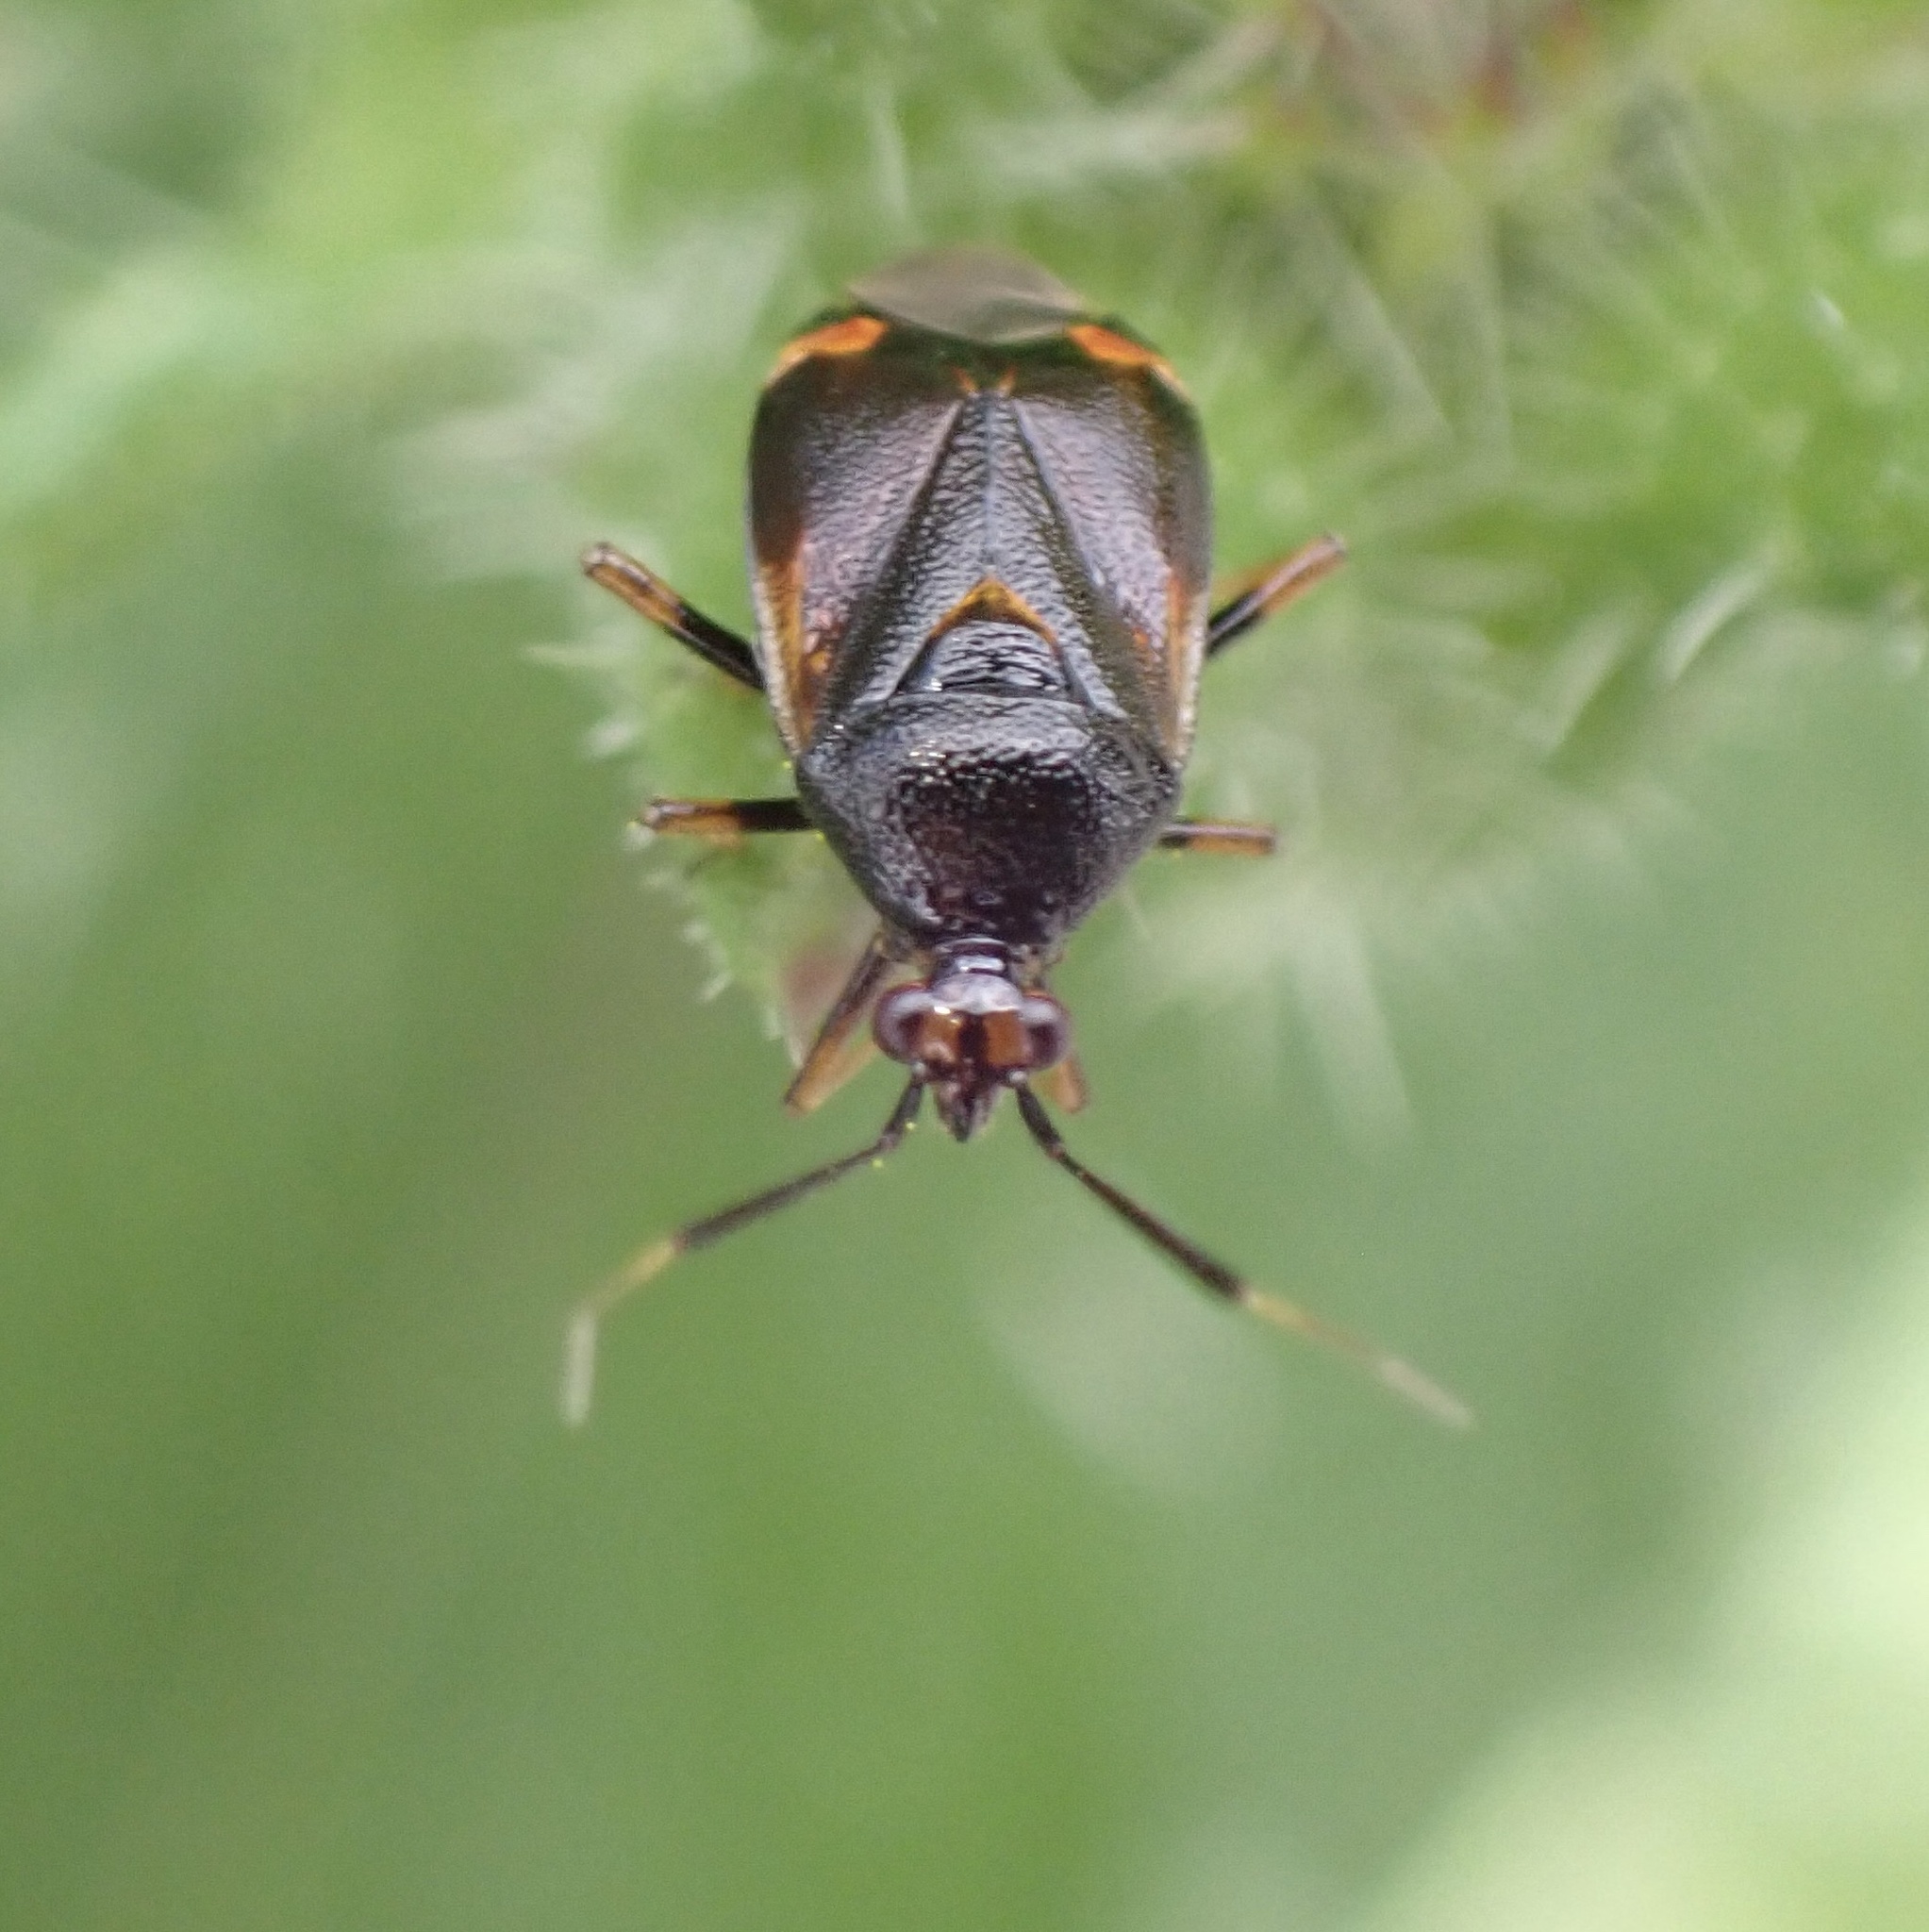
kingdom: Animalia
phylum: Arthropoda
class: Insecta
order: Hemiptera
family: Miridae
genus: Deraeocoris
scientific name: Deraeocoris ruber
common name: Plant bug
